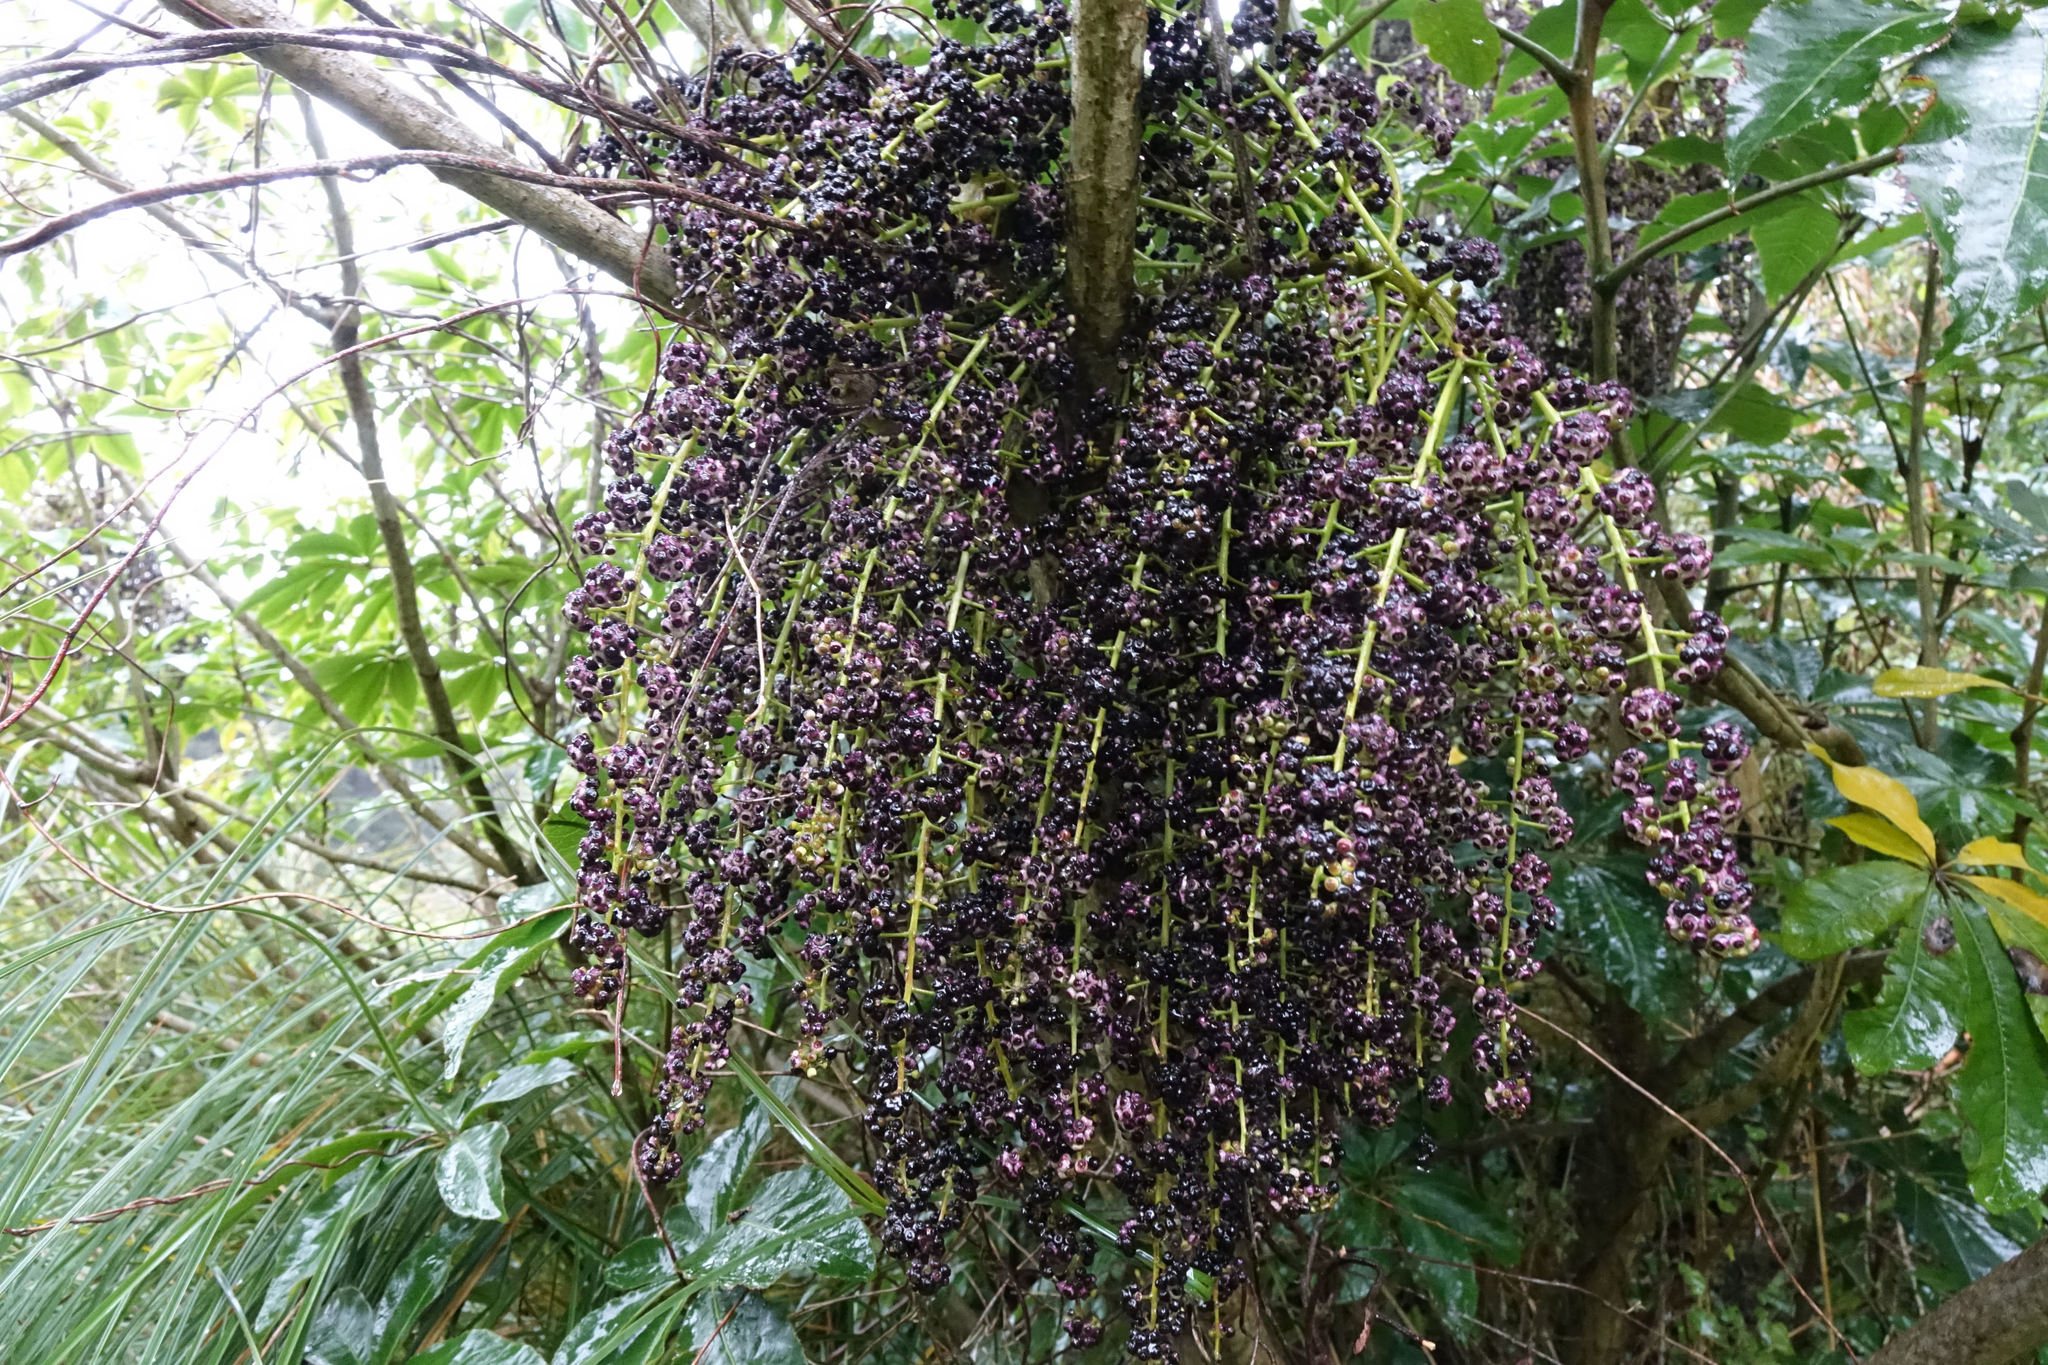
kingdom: Plantae
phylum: Tracheophyta
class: Magnoliopsida
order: Apiales
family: Araliaceae
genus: Schefflera
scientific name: Schefflera digitata
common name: Pate
